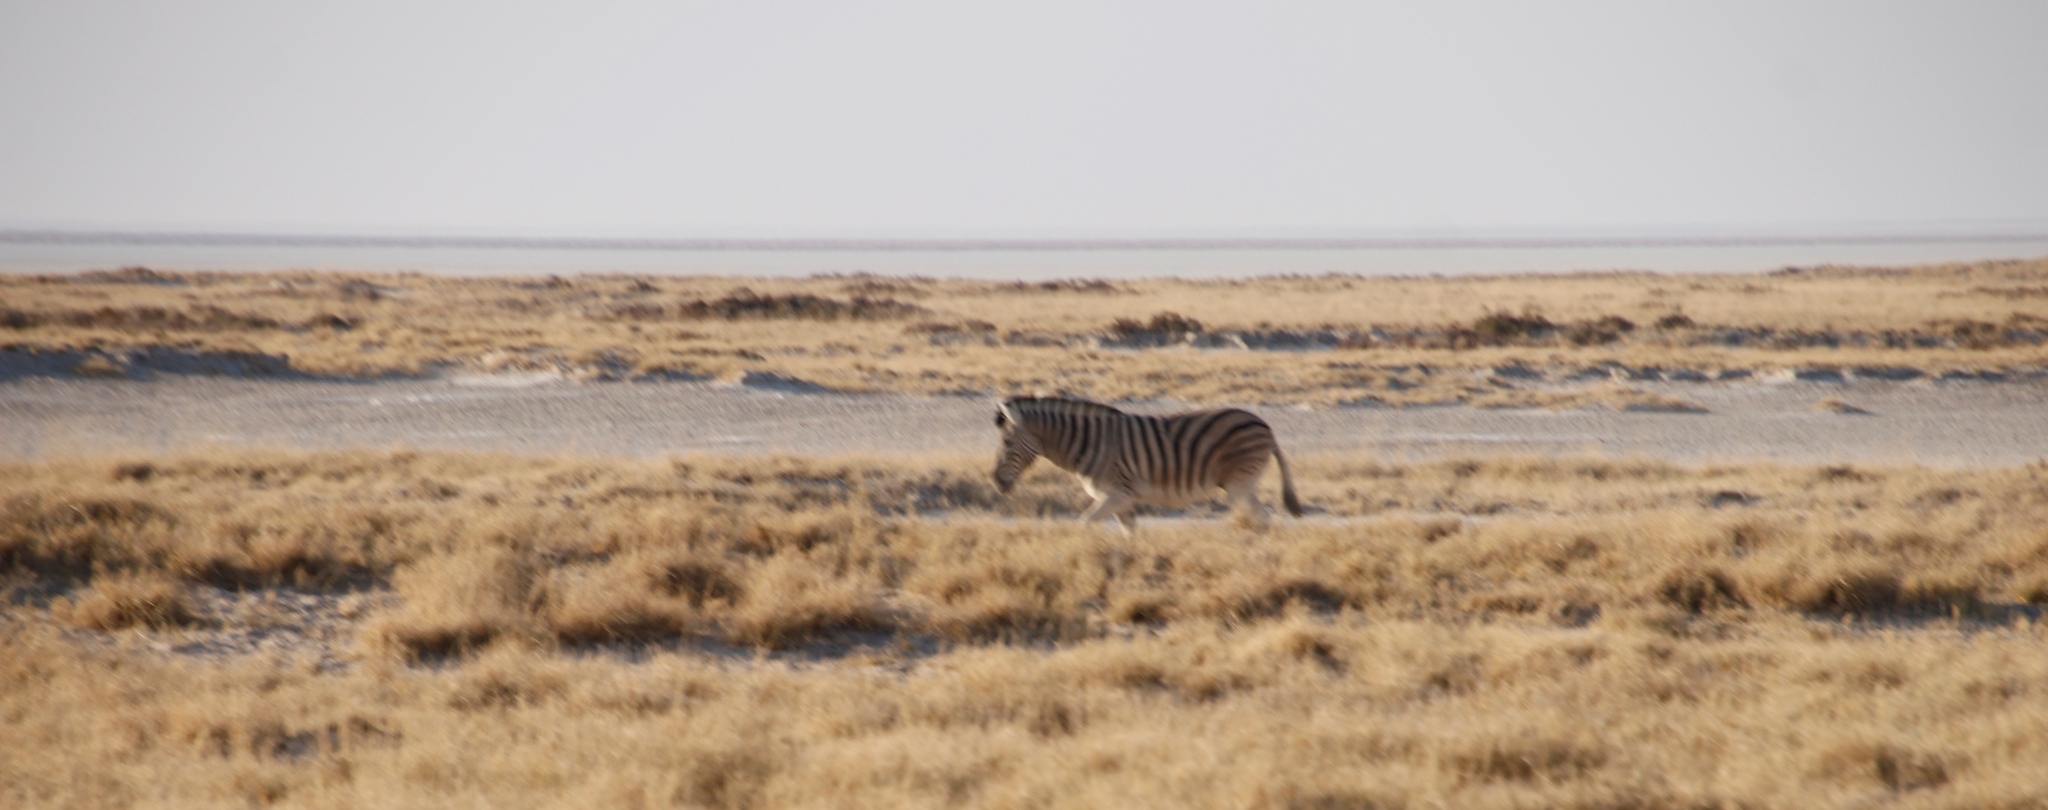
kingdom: Animalia
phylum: Chordata
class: Mammalia
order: Perissodactyla
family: Equidae
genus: Equus
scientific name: Equus quagga
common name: Plains zebra
